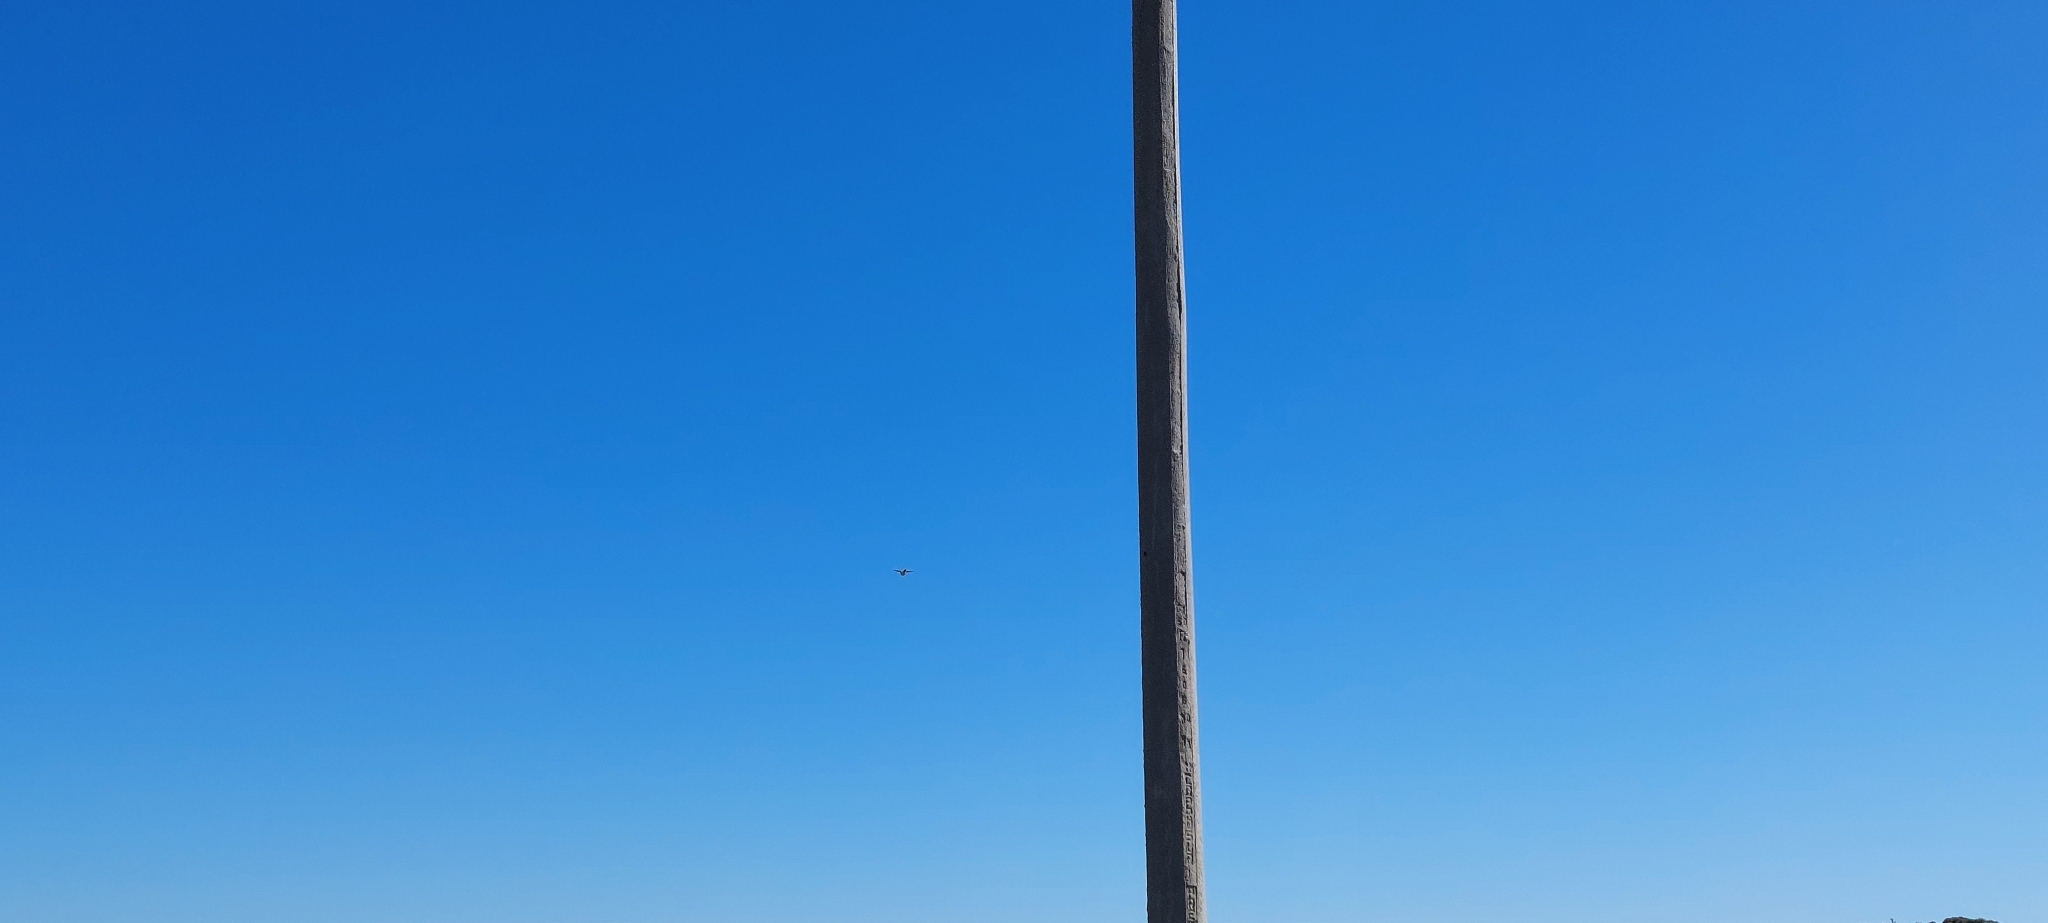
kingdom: Animalia
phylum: Chordata
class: Aves
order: Falconiformes
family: Falconidae
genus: Falco
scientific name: Falco sparverius
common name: American kestrel
